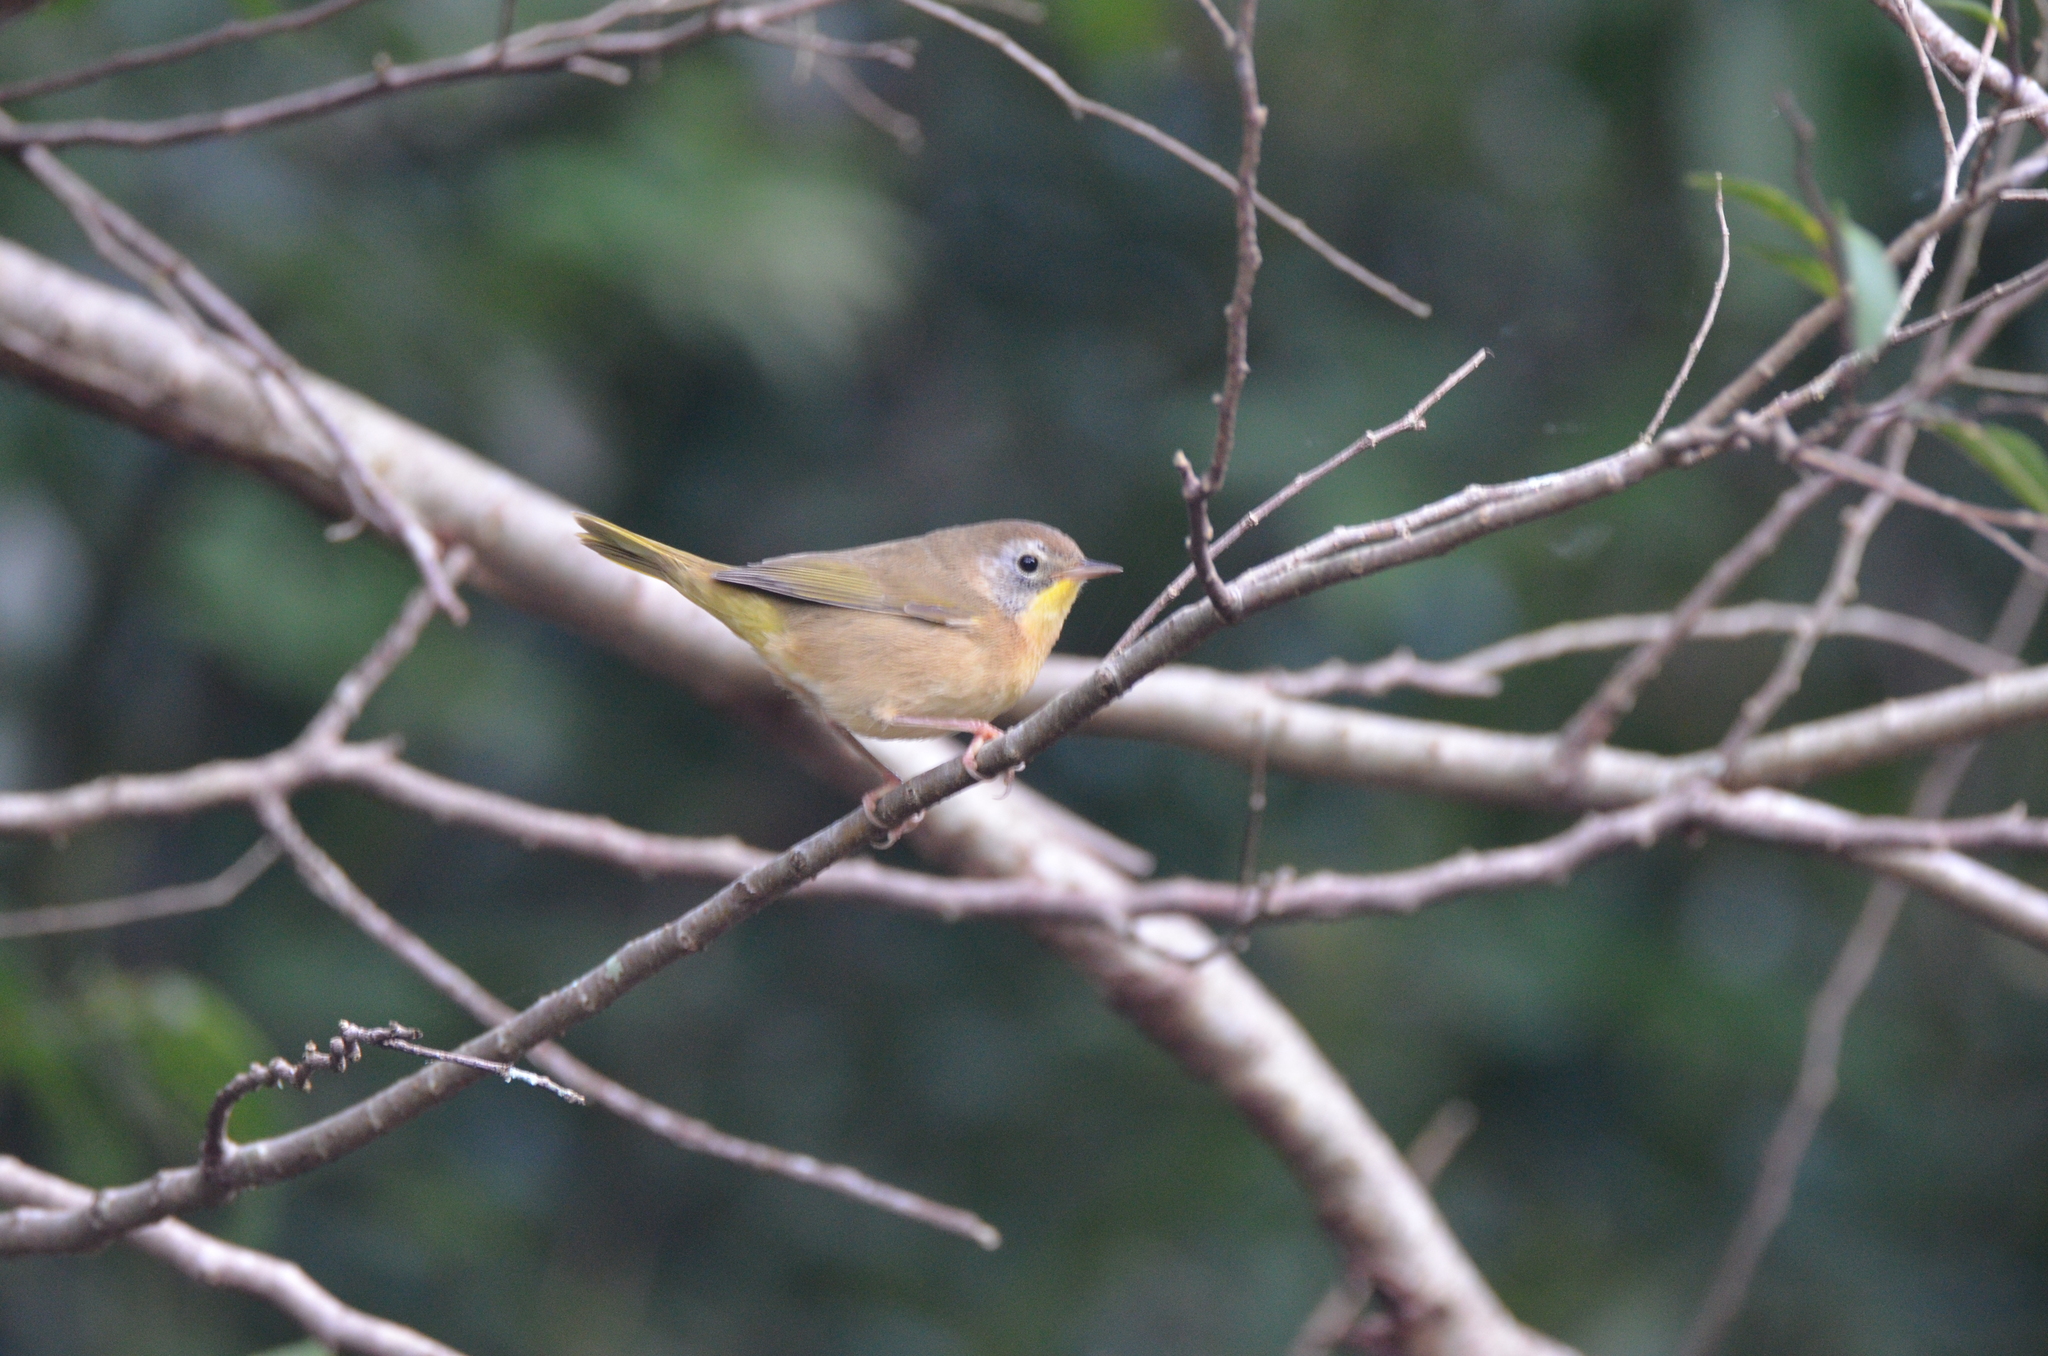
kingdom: Animalia
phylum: Chordata
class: Aves
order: Passeriformes
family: Parulidae
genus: Geothlypis
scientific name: Geothlypis trichas
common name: Common yellowthroat
